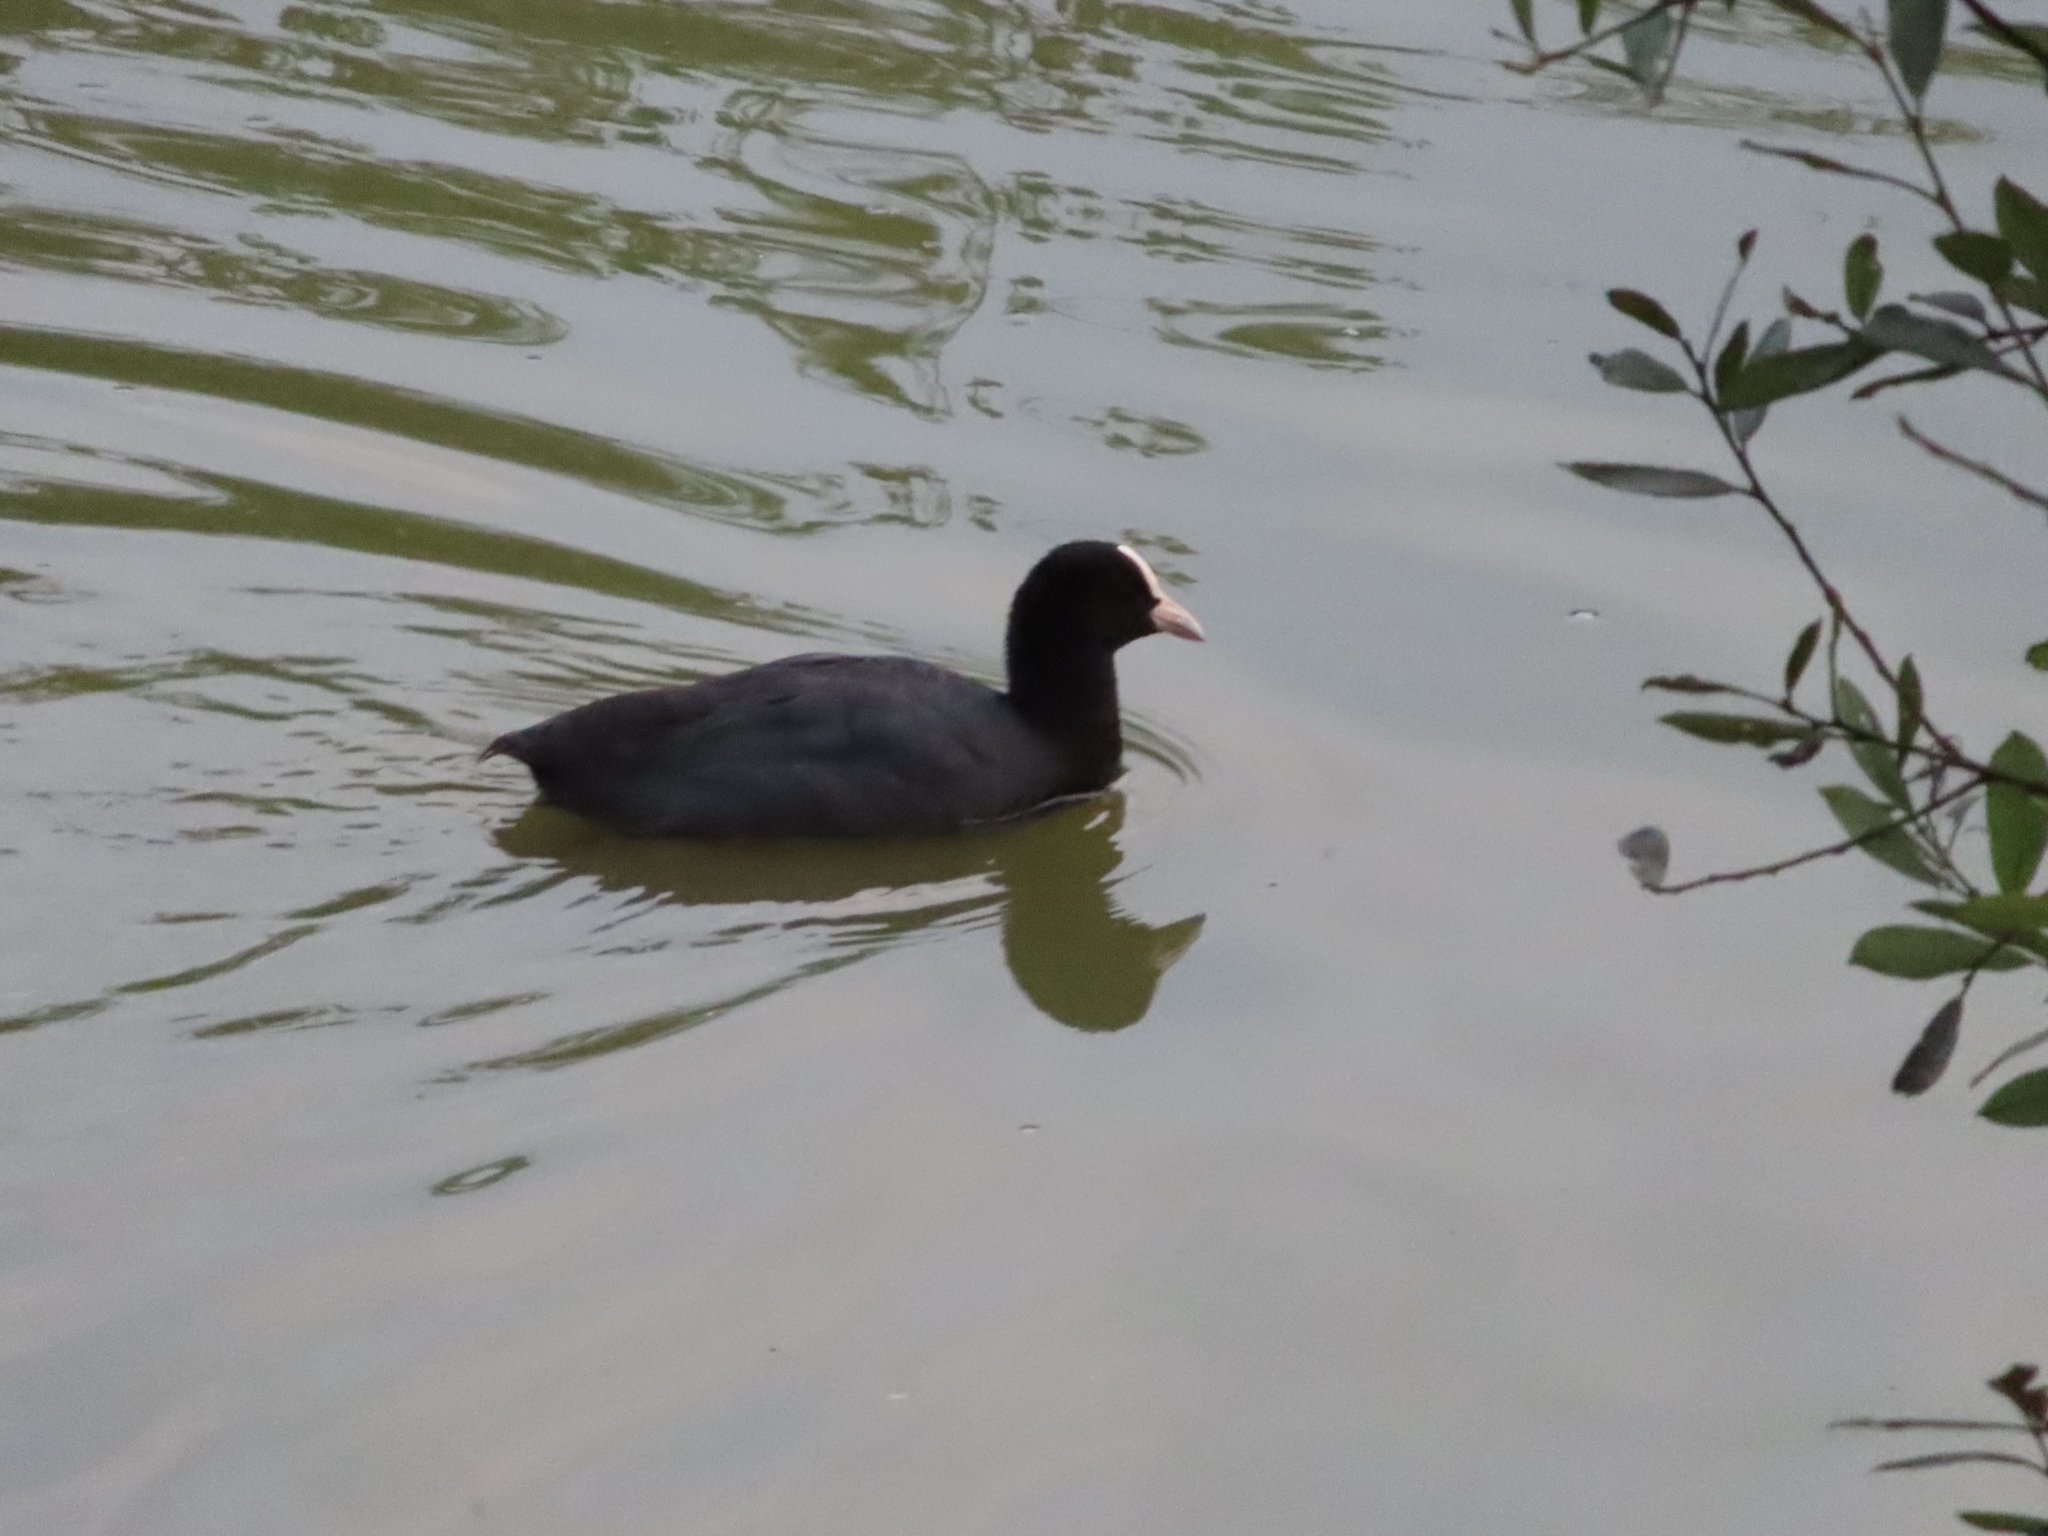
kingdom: Animalia
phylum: Chordata
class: Aves
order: Gruiformes
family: Rallidae
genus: Fulica
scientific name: Fulica atra
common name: Eurasian coot
